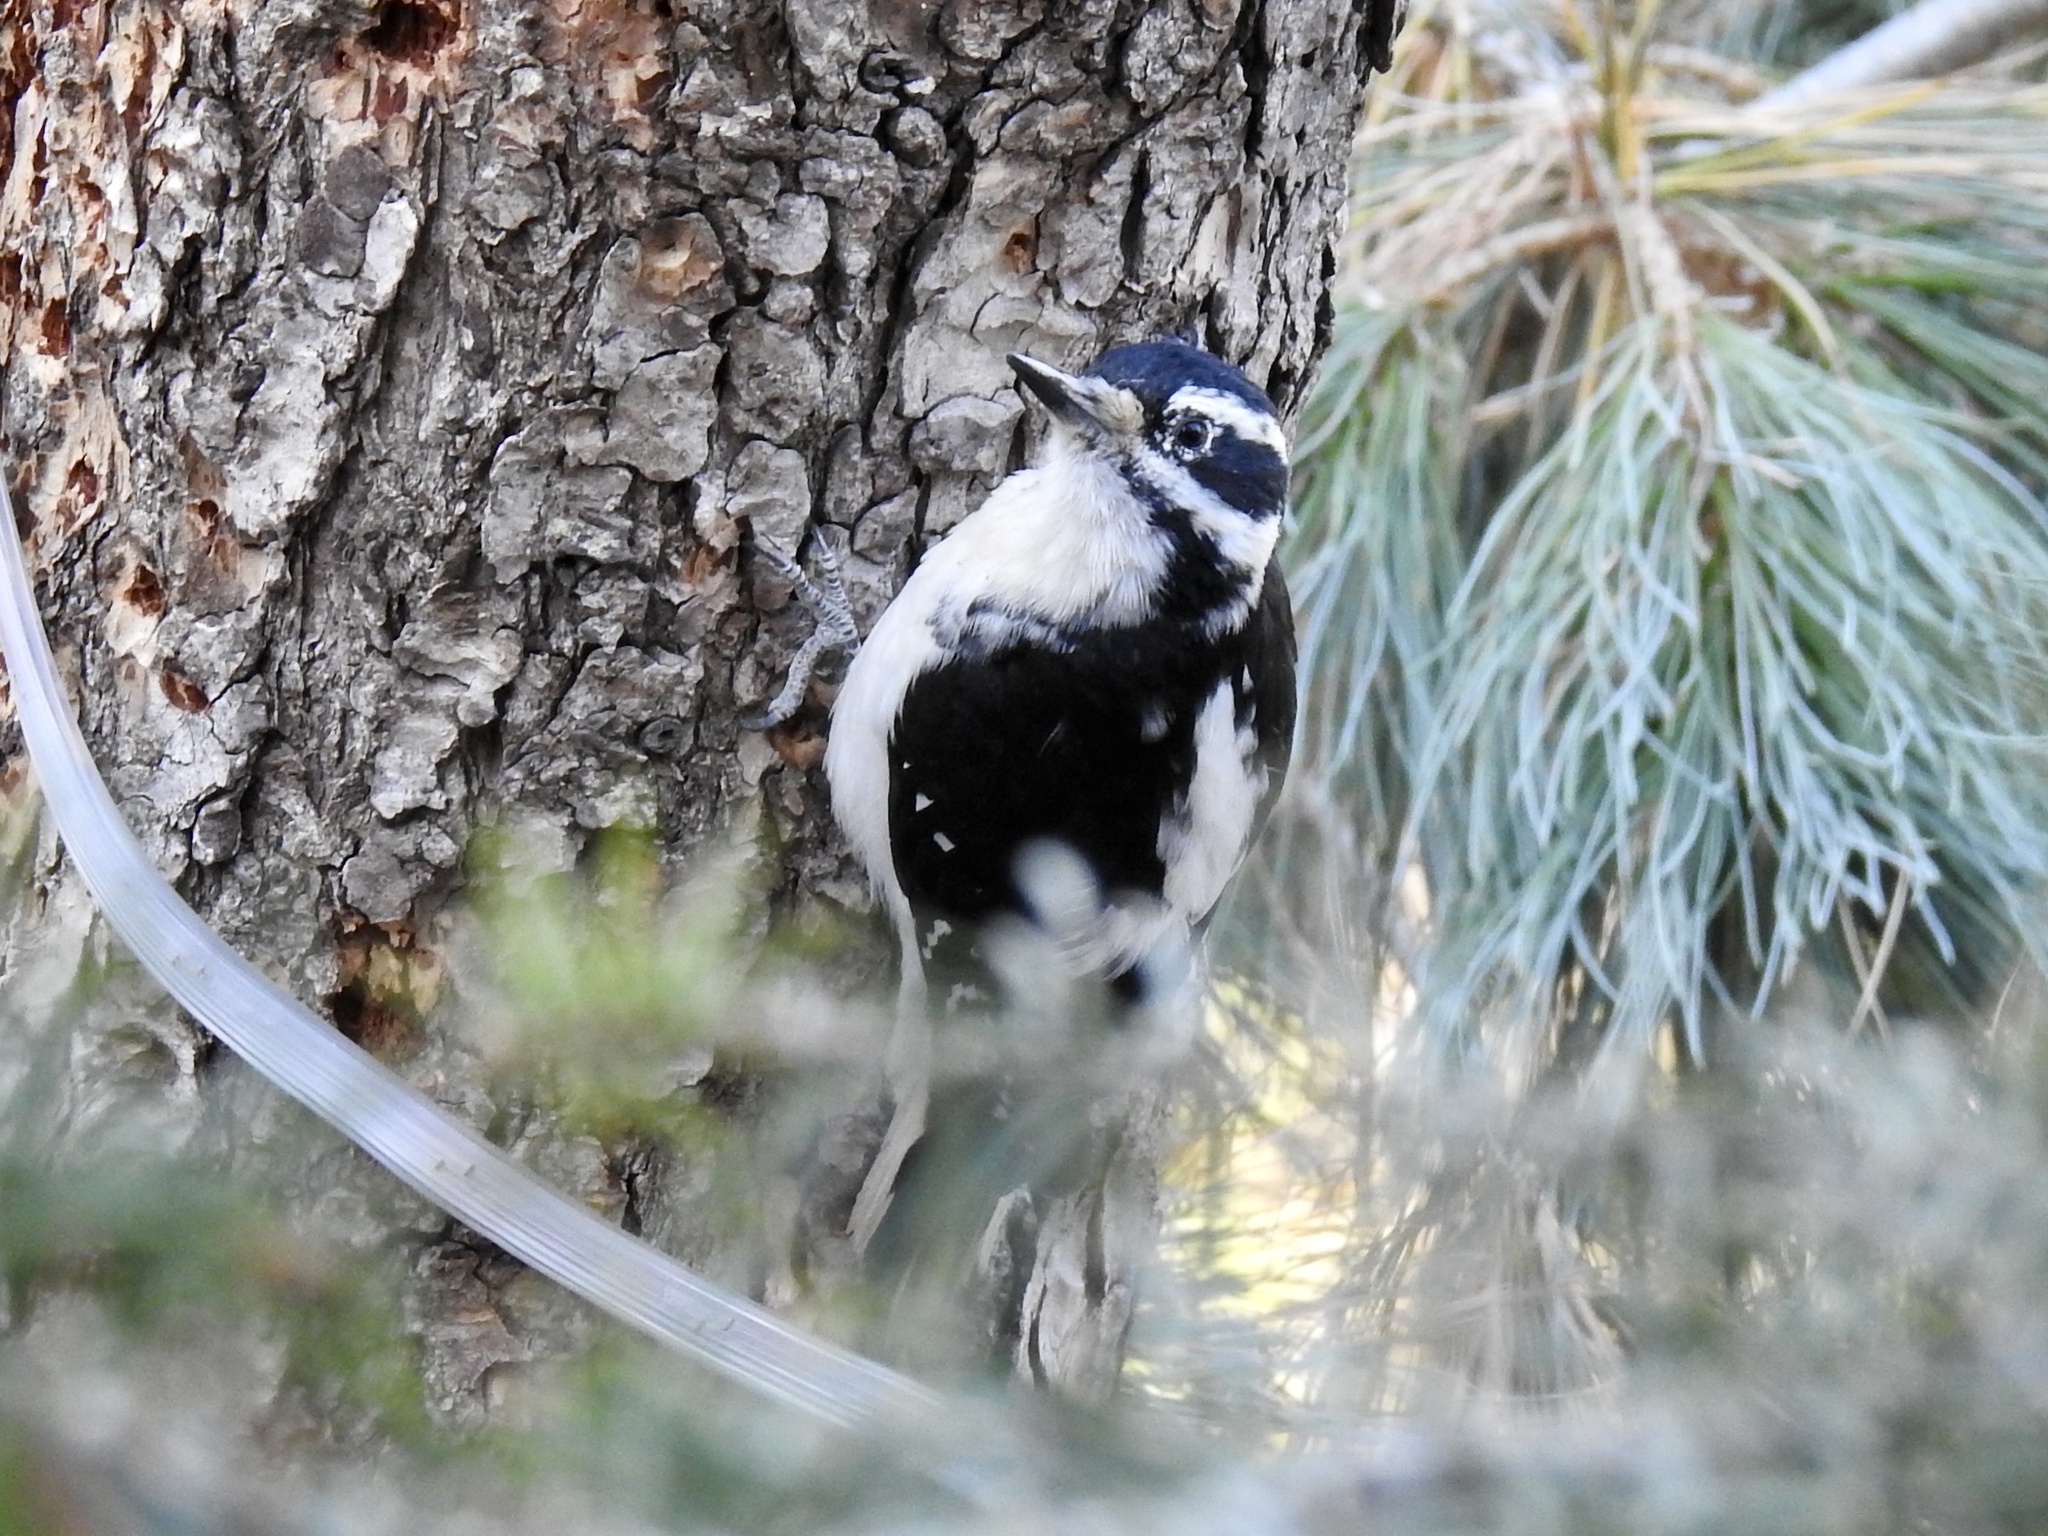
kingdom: Animalia
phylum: Chordata
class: Aves
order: Piciformes
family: Picidae
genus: Leuconotopicus
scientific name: Leuconotopicus villosus
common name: Hairy woodpecker
